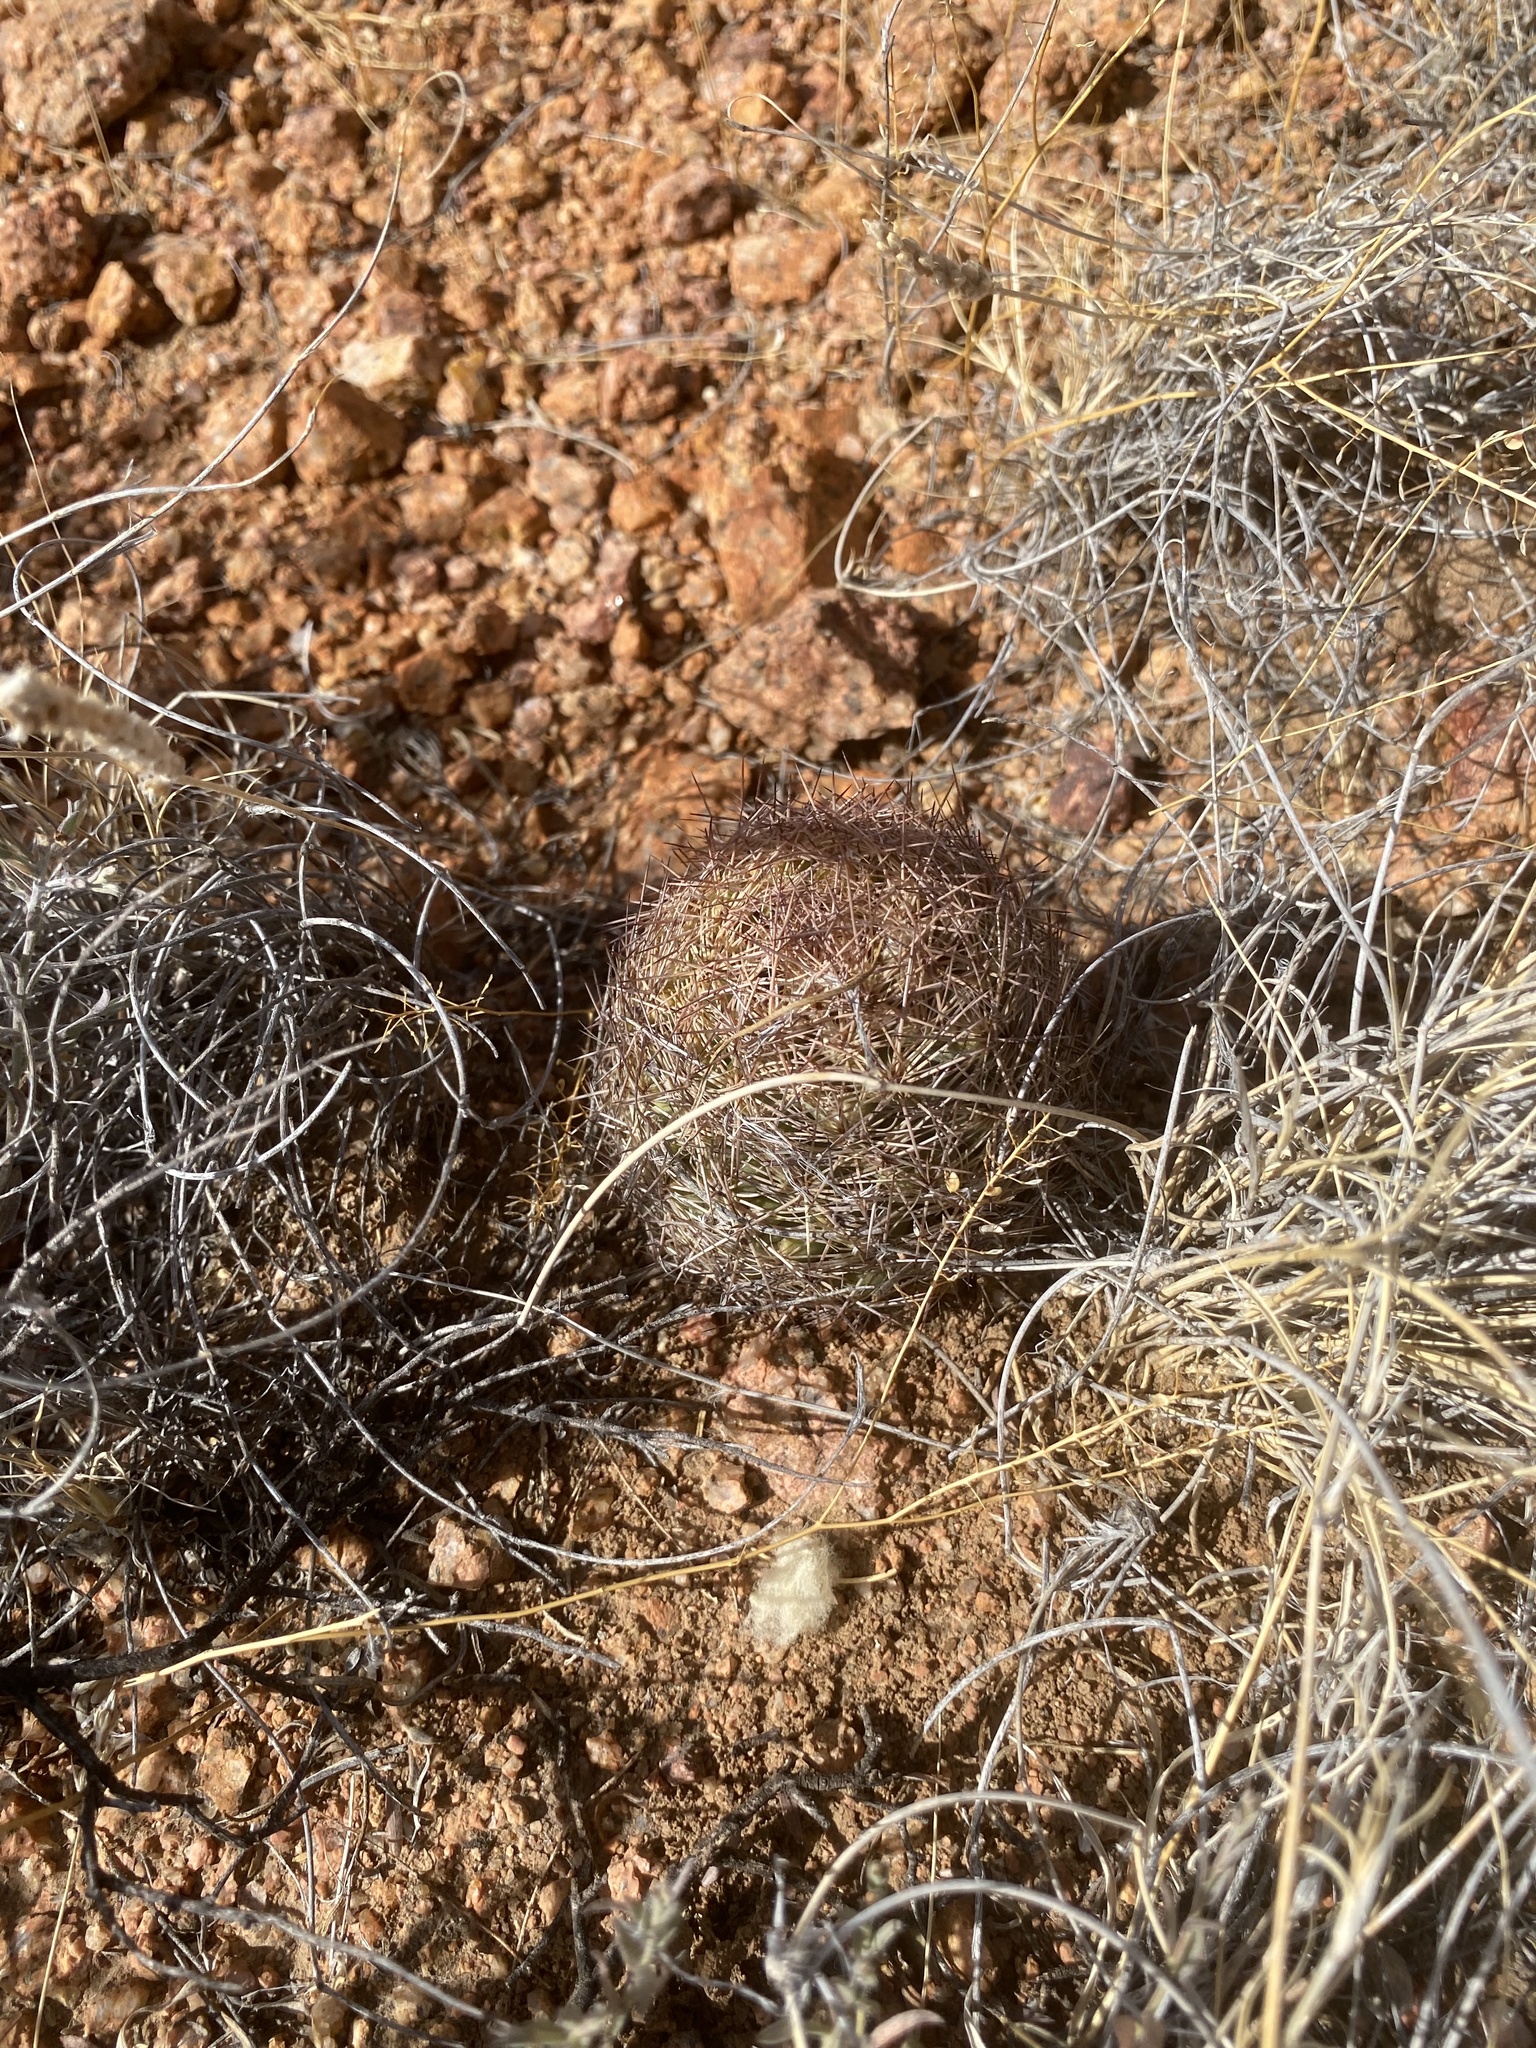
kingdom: Plantae
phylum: Tracheophyta
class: Magnoliopsida
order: Caryophyllales
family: Cactaceae
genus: Sclerocactus
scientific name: Sclerocactus intertextus
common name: White fish-hook cactus
